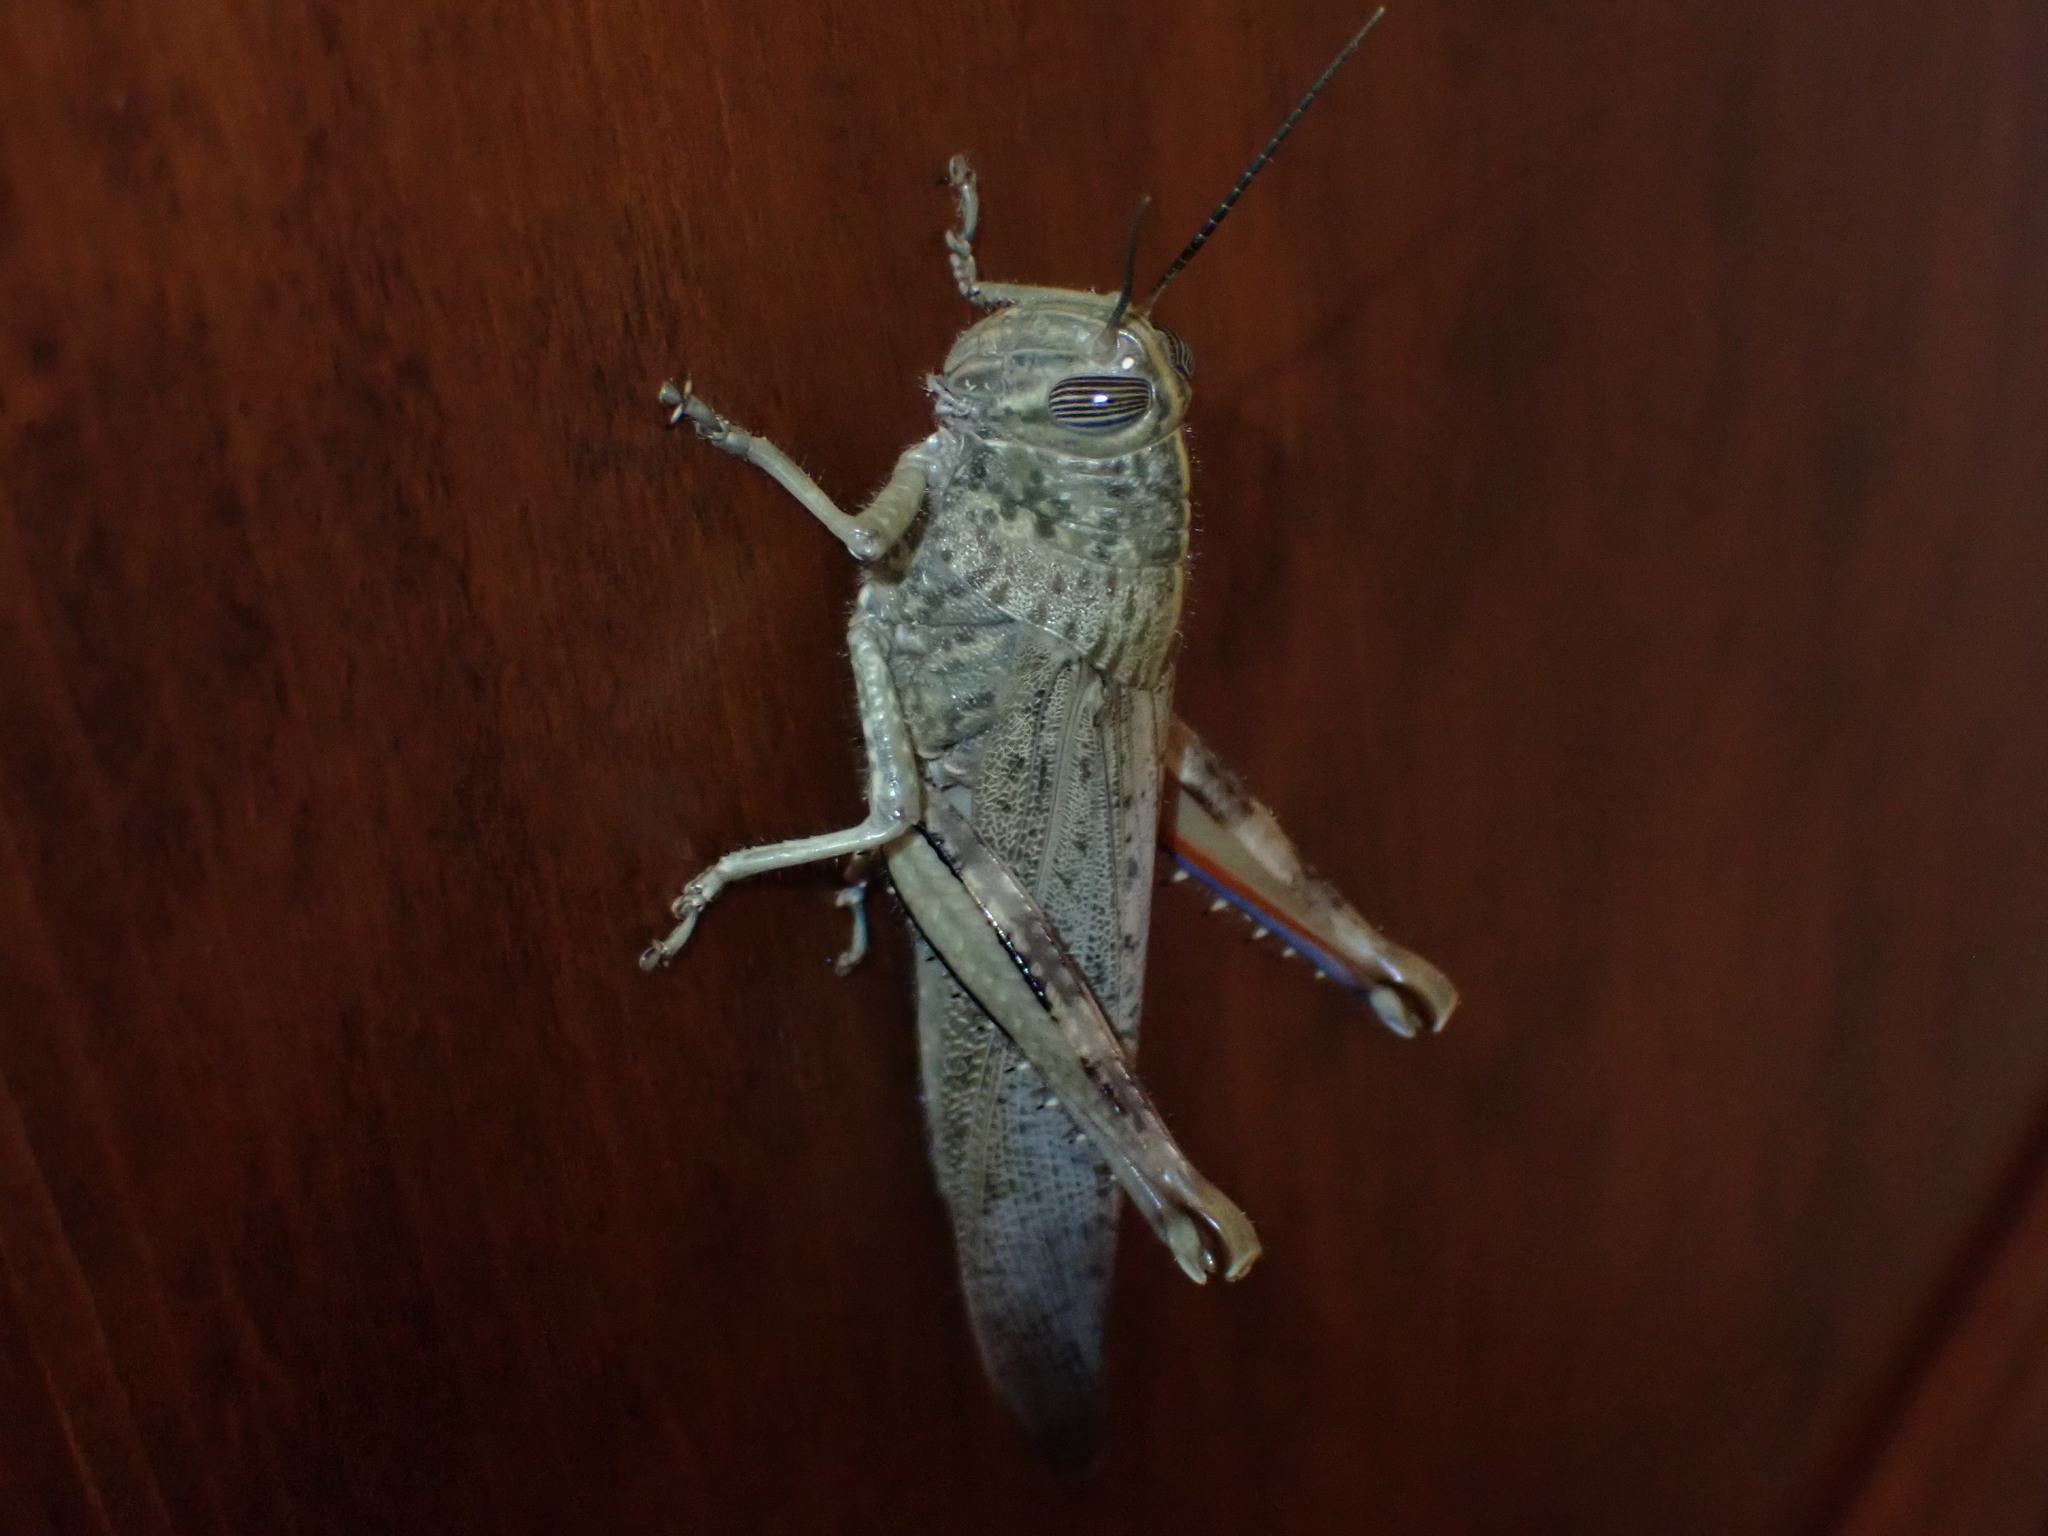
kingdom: Animalia
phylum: Arthropoda
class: Insecta
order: Orthoptera
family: Acrididae
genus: Anacridium
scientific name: Anacridium aegyptium
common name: Egyptian grasshopper
